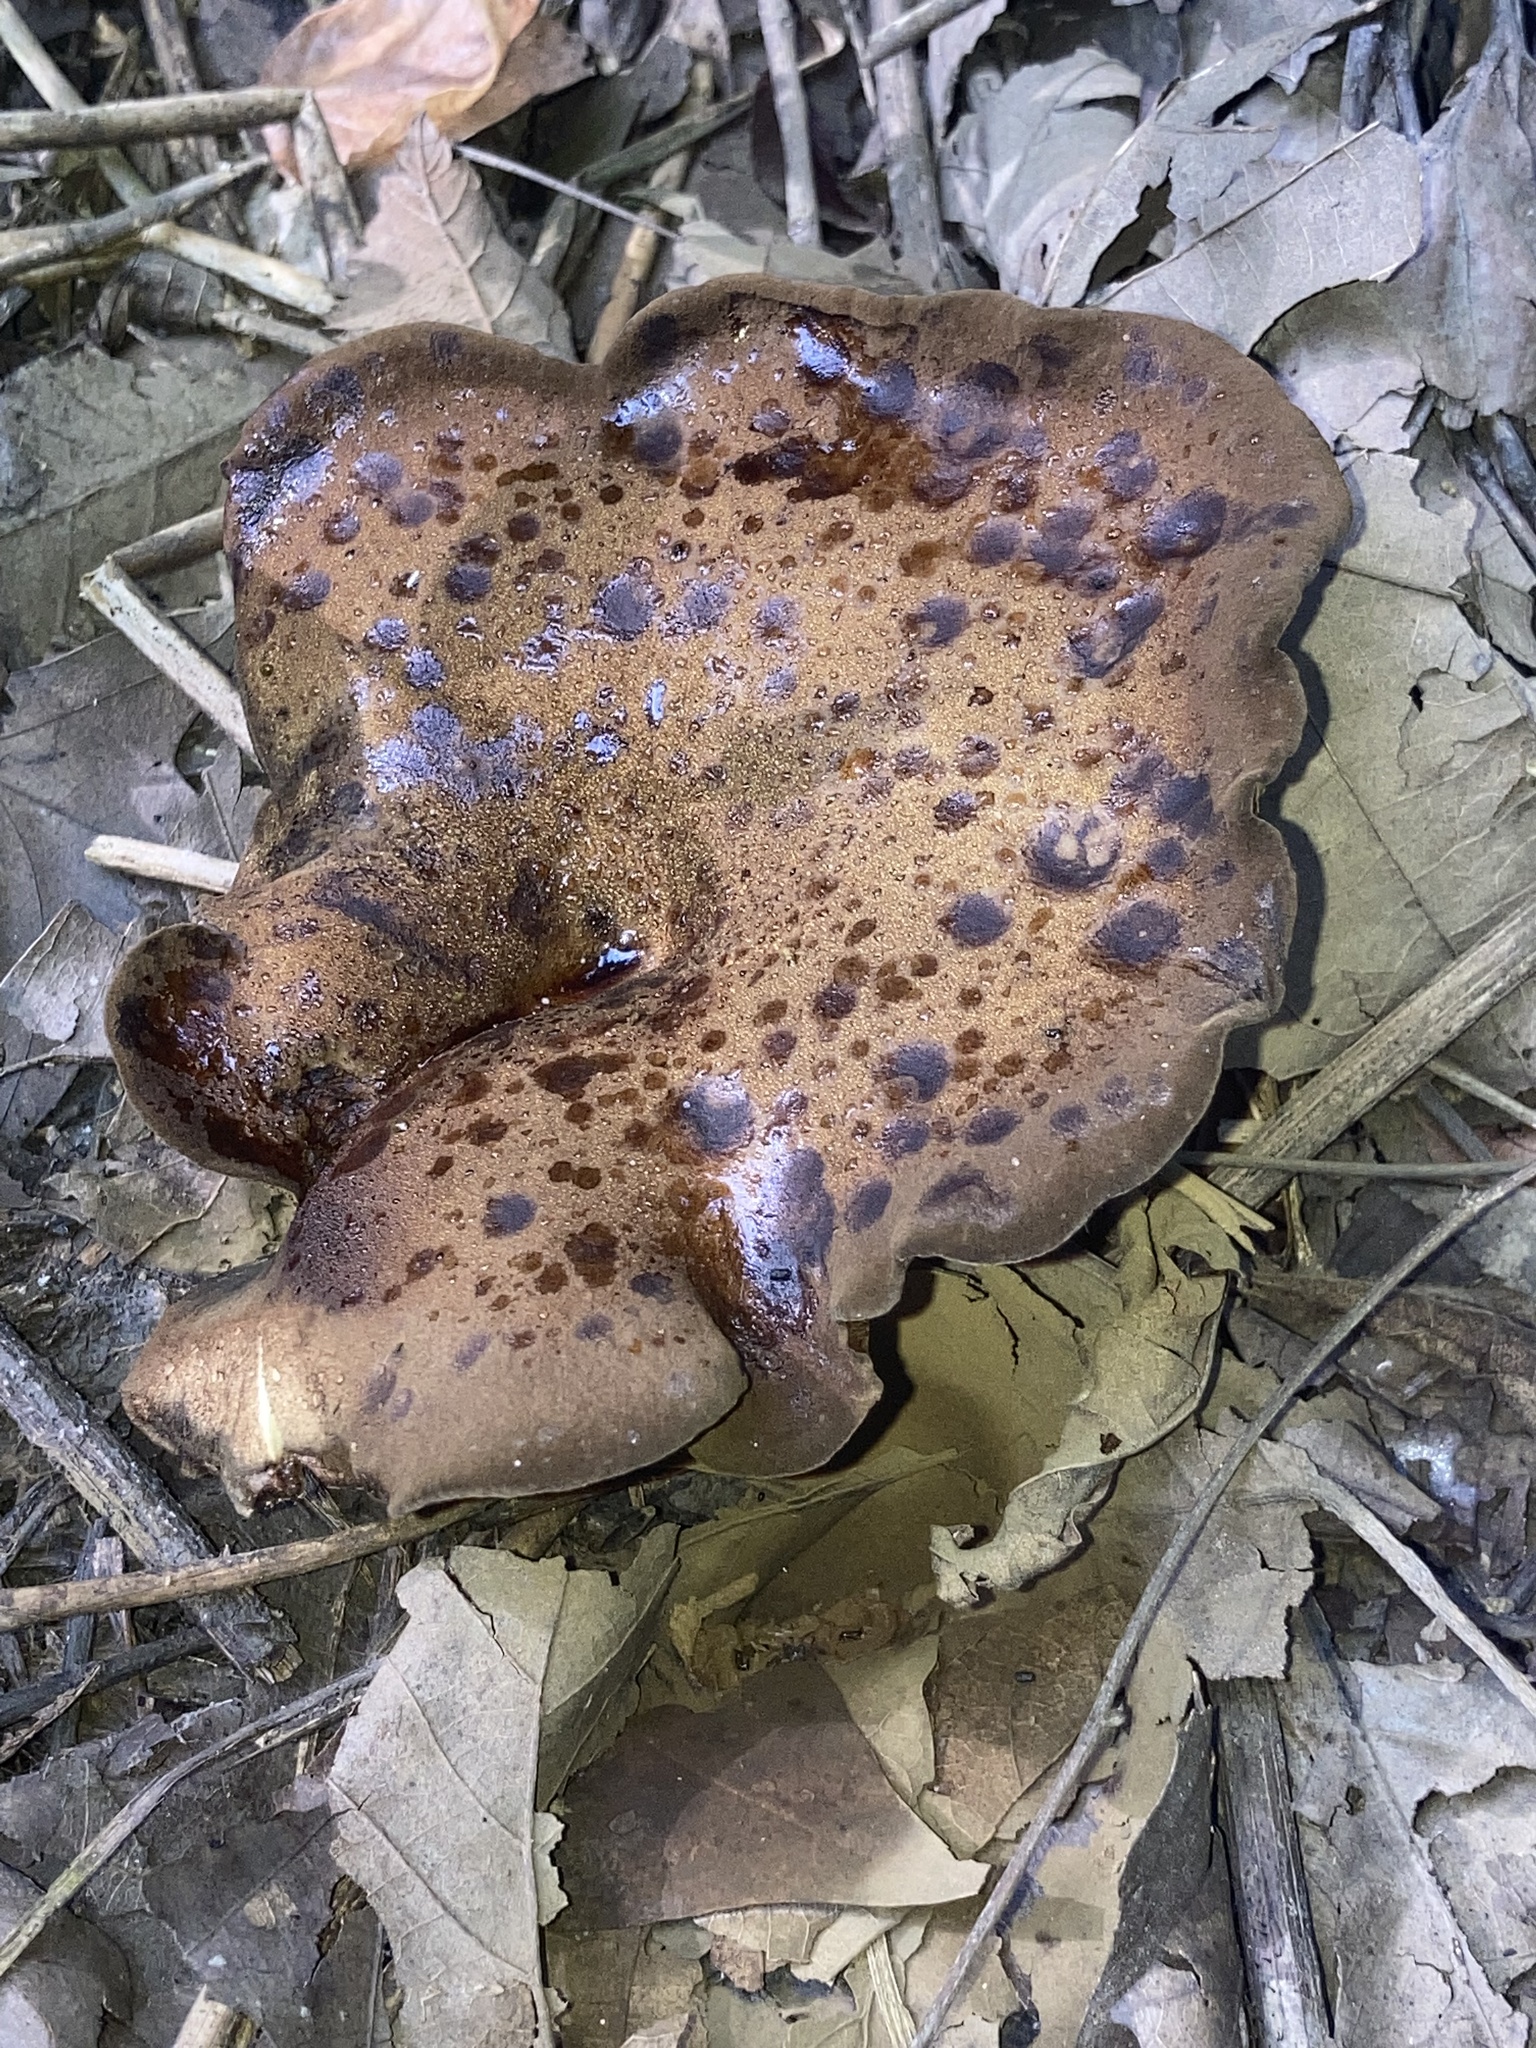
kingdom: Fungi
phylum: Basidiomycota
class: Agaricomycetes
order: Boletales
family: Boletinellaceae
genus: Boletinellus
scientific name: Boletinellus merulioides
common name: Ash tree bolete
